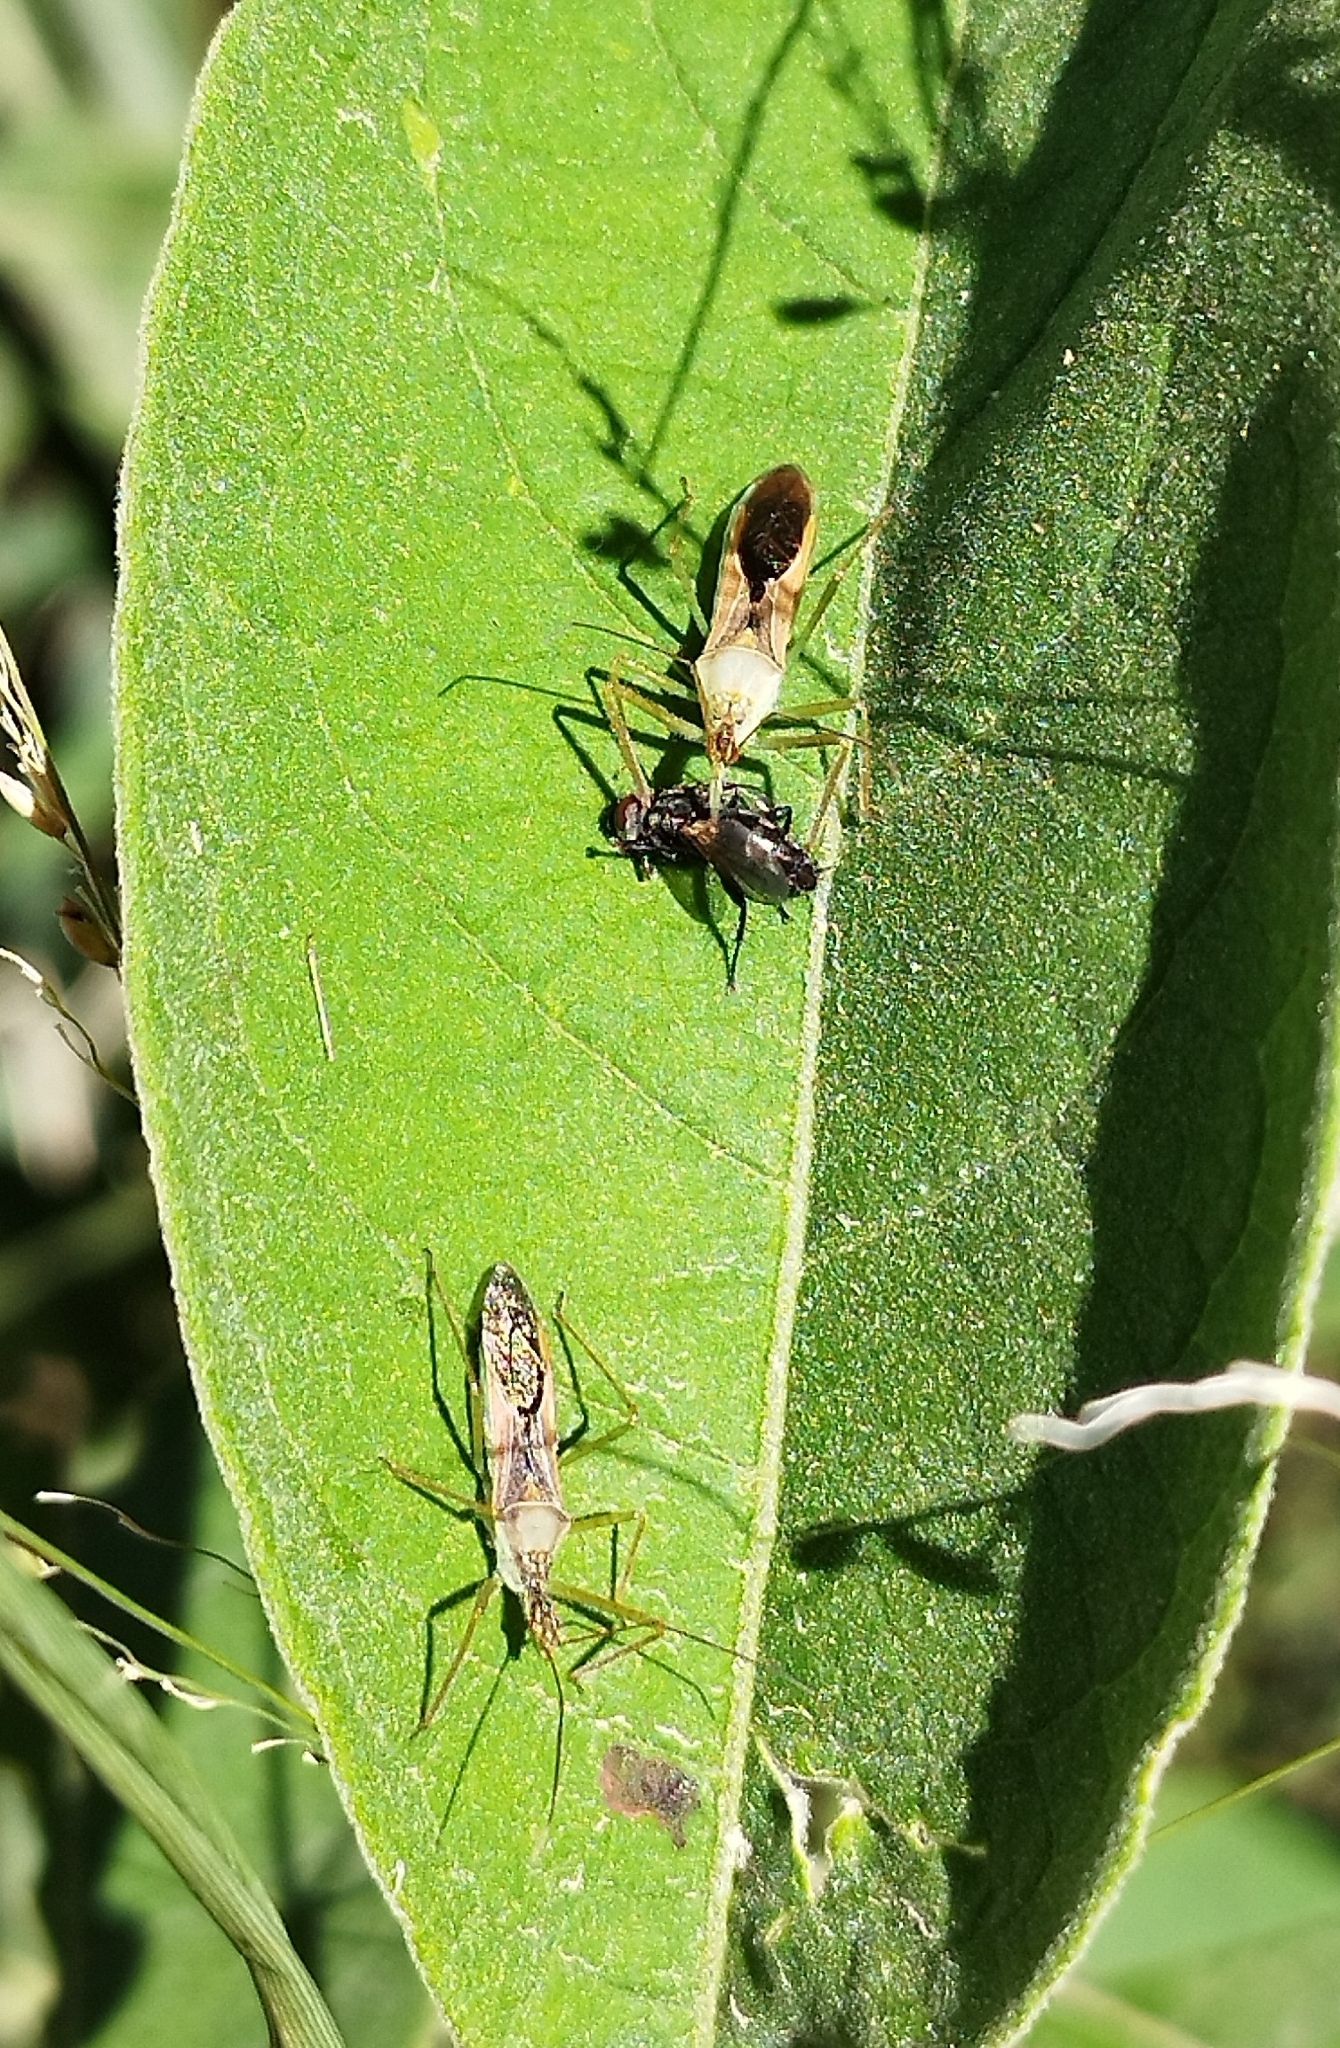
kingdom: Animalia
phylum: Arthropoda
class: Insecta
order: Hemiptera
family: Reduviidae
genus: Zelus
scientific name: Zelus renardii
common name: Assassin bug
